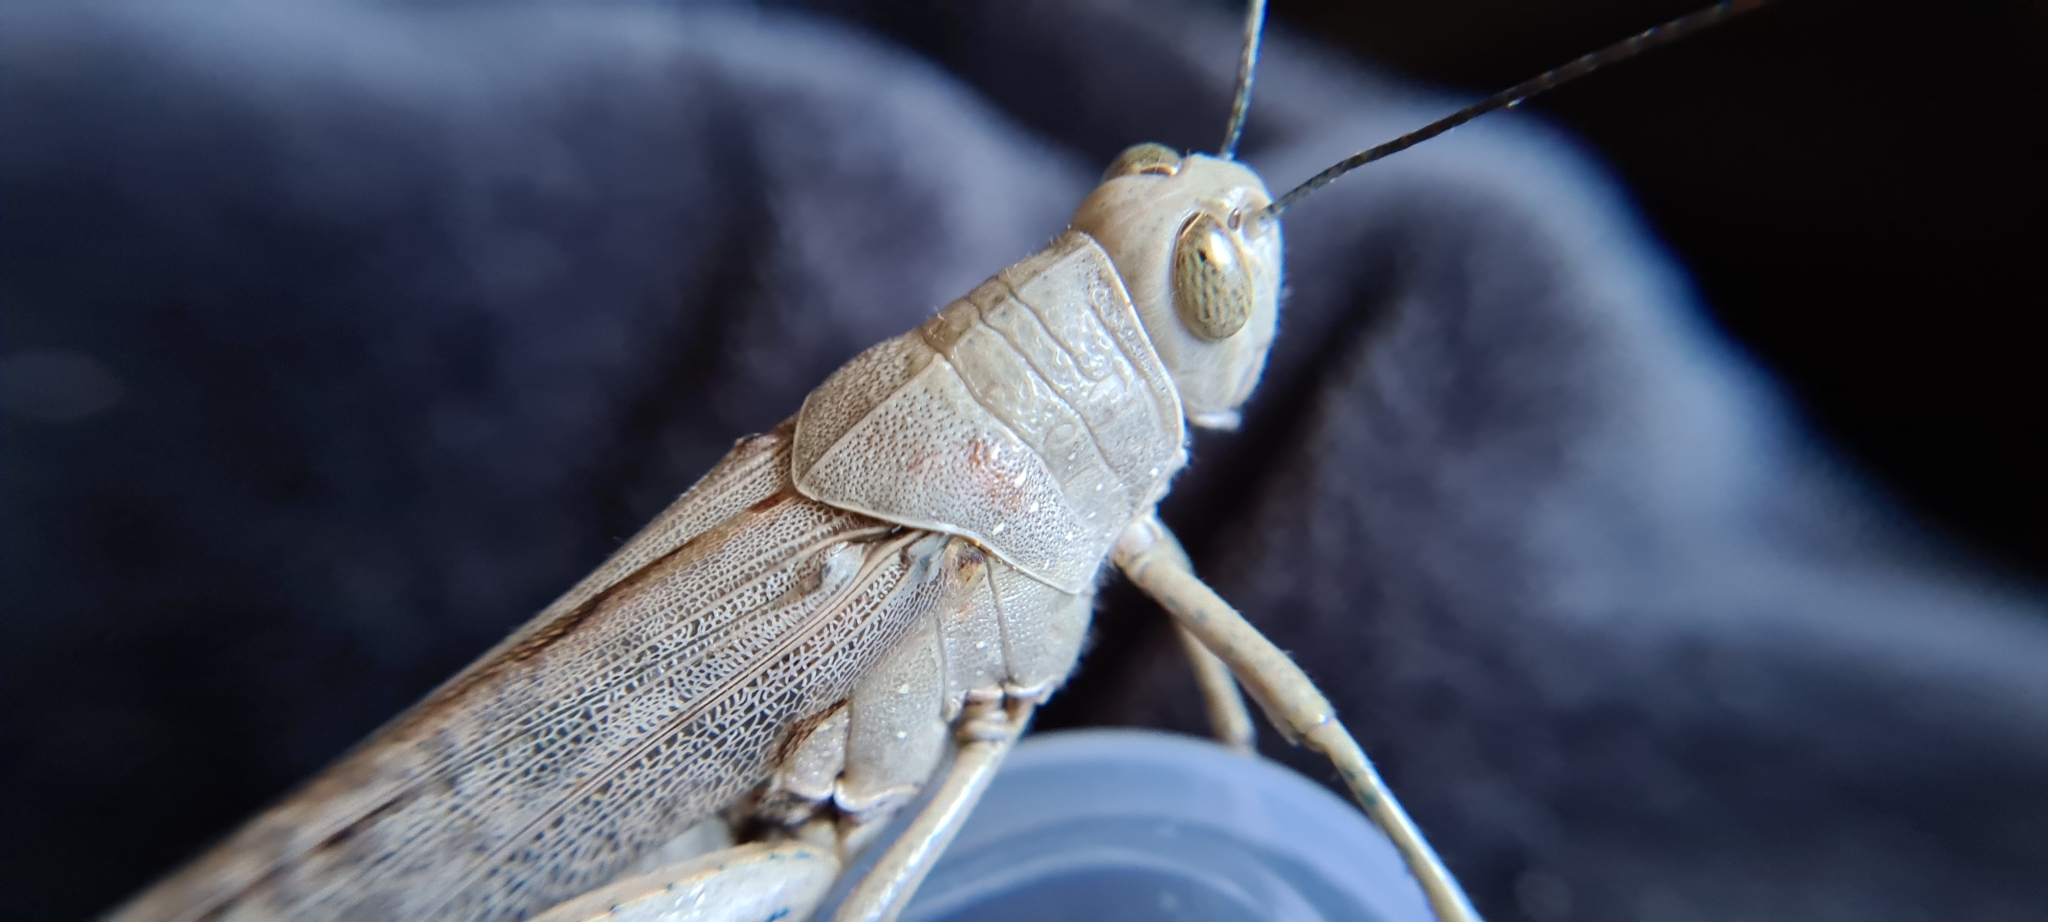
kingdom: Animalia
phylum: Arthropoda
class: Insecta
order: Orthoptera
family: Acrididae
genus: Valanga
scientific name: Valanga irregularis
